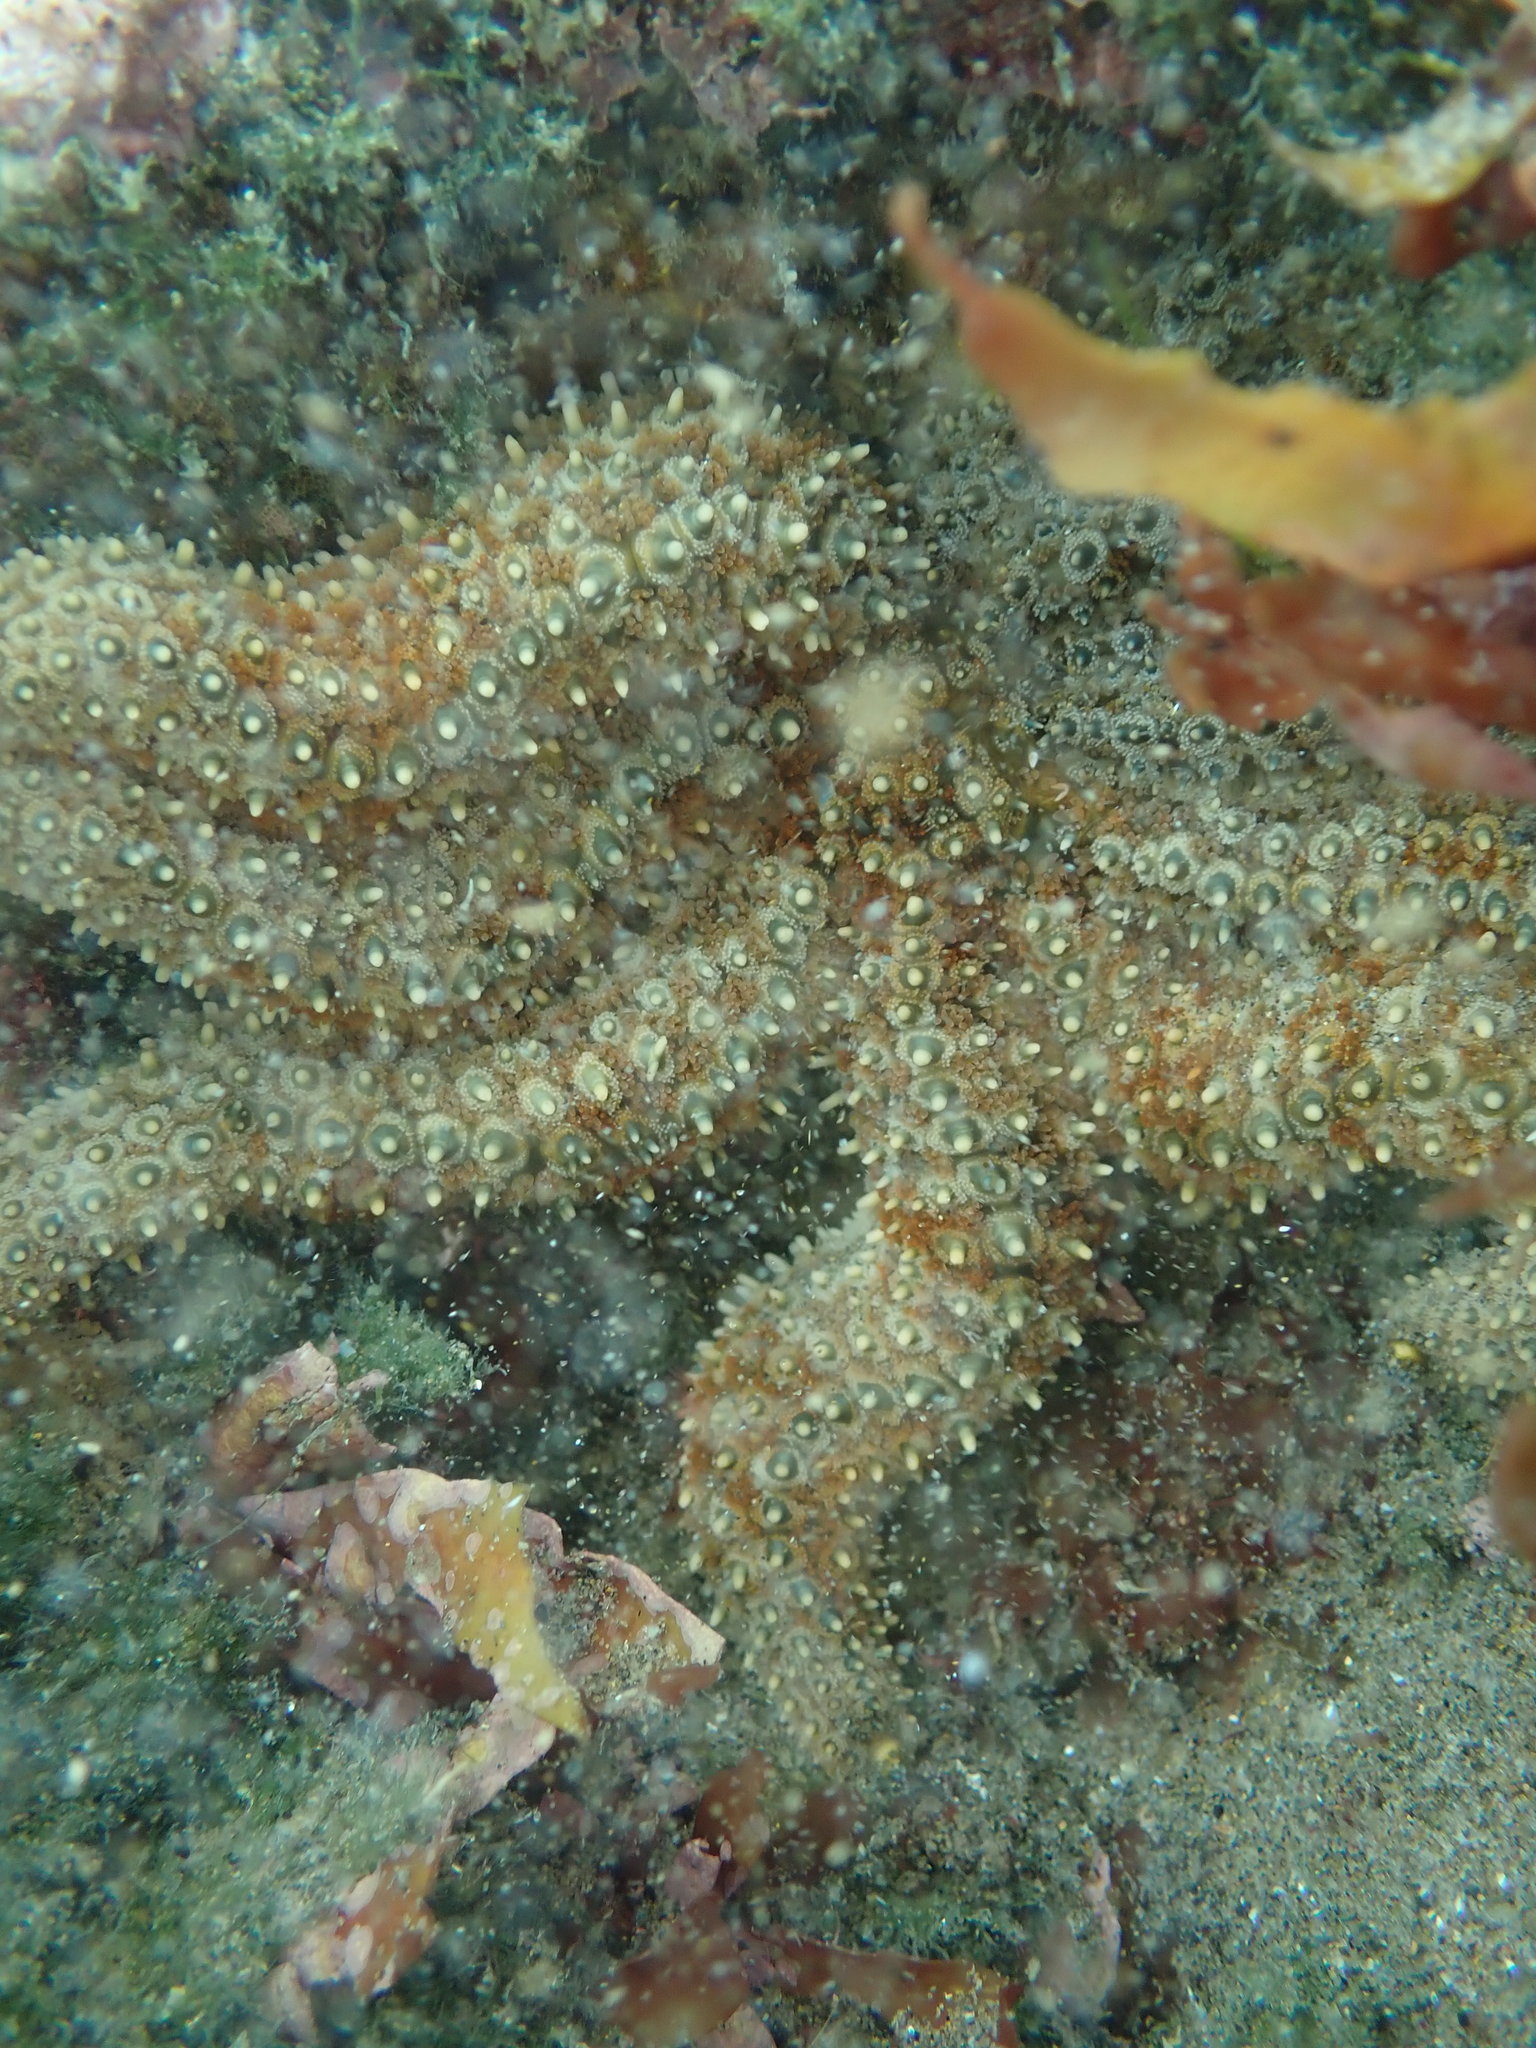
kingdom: Animalia
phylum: Echinodermata
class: Asteroidea
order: Forcipulatida
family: Asteriidae
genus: Coscinasterias
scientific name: Coscinasterias muricata
